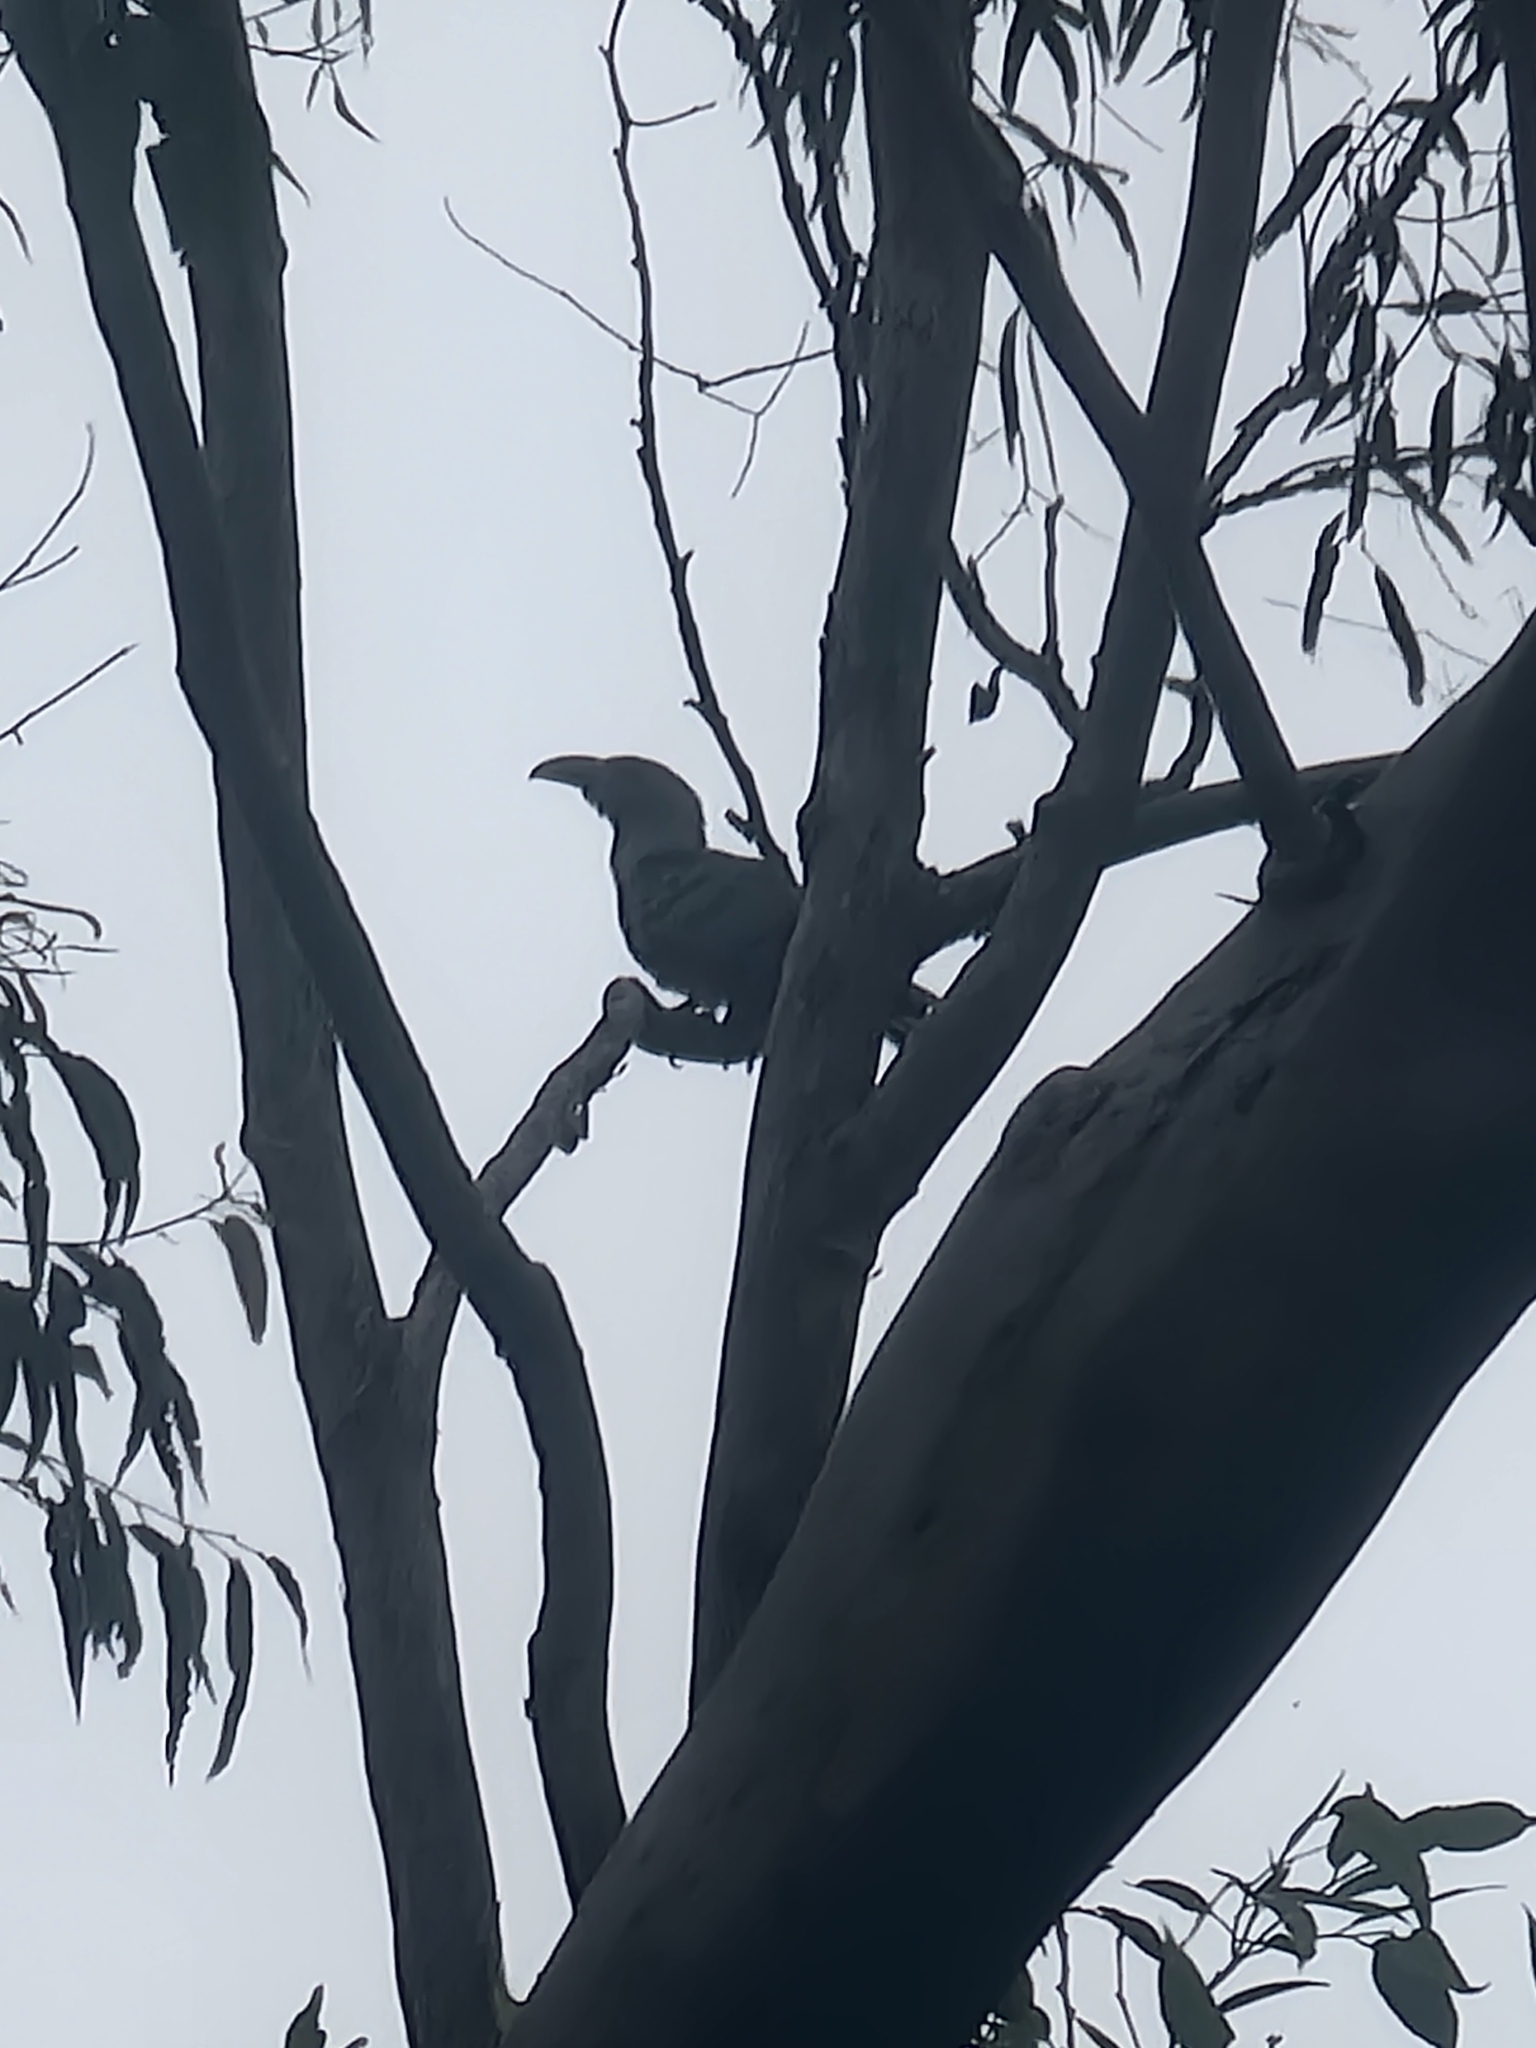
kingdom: Animalia
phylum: Chordata
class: Aves
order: Cuculiformes
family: Cuculidae
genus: Scythrops
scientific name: Scythrops novaehollandiae
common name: Channel-billed cuckoo
